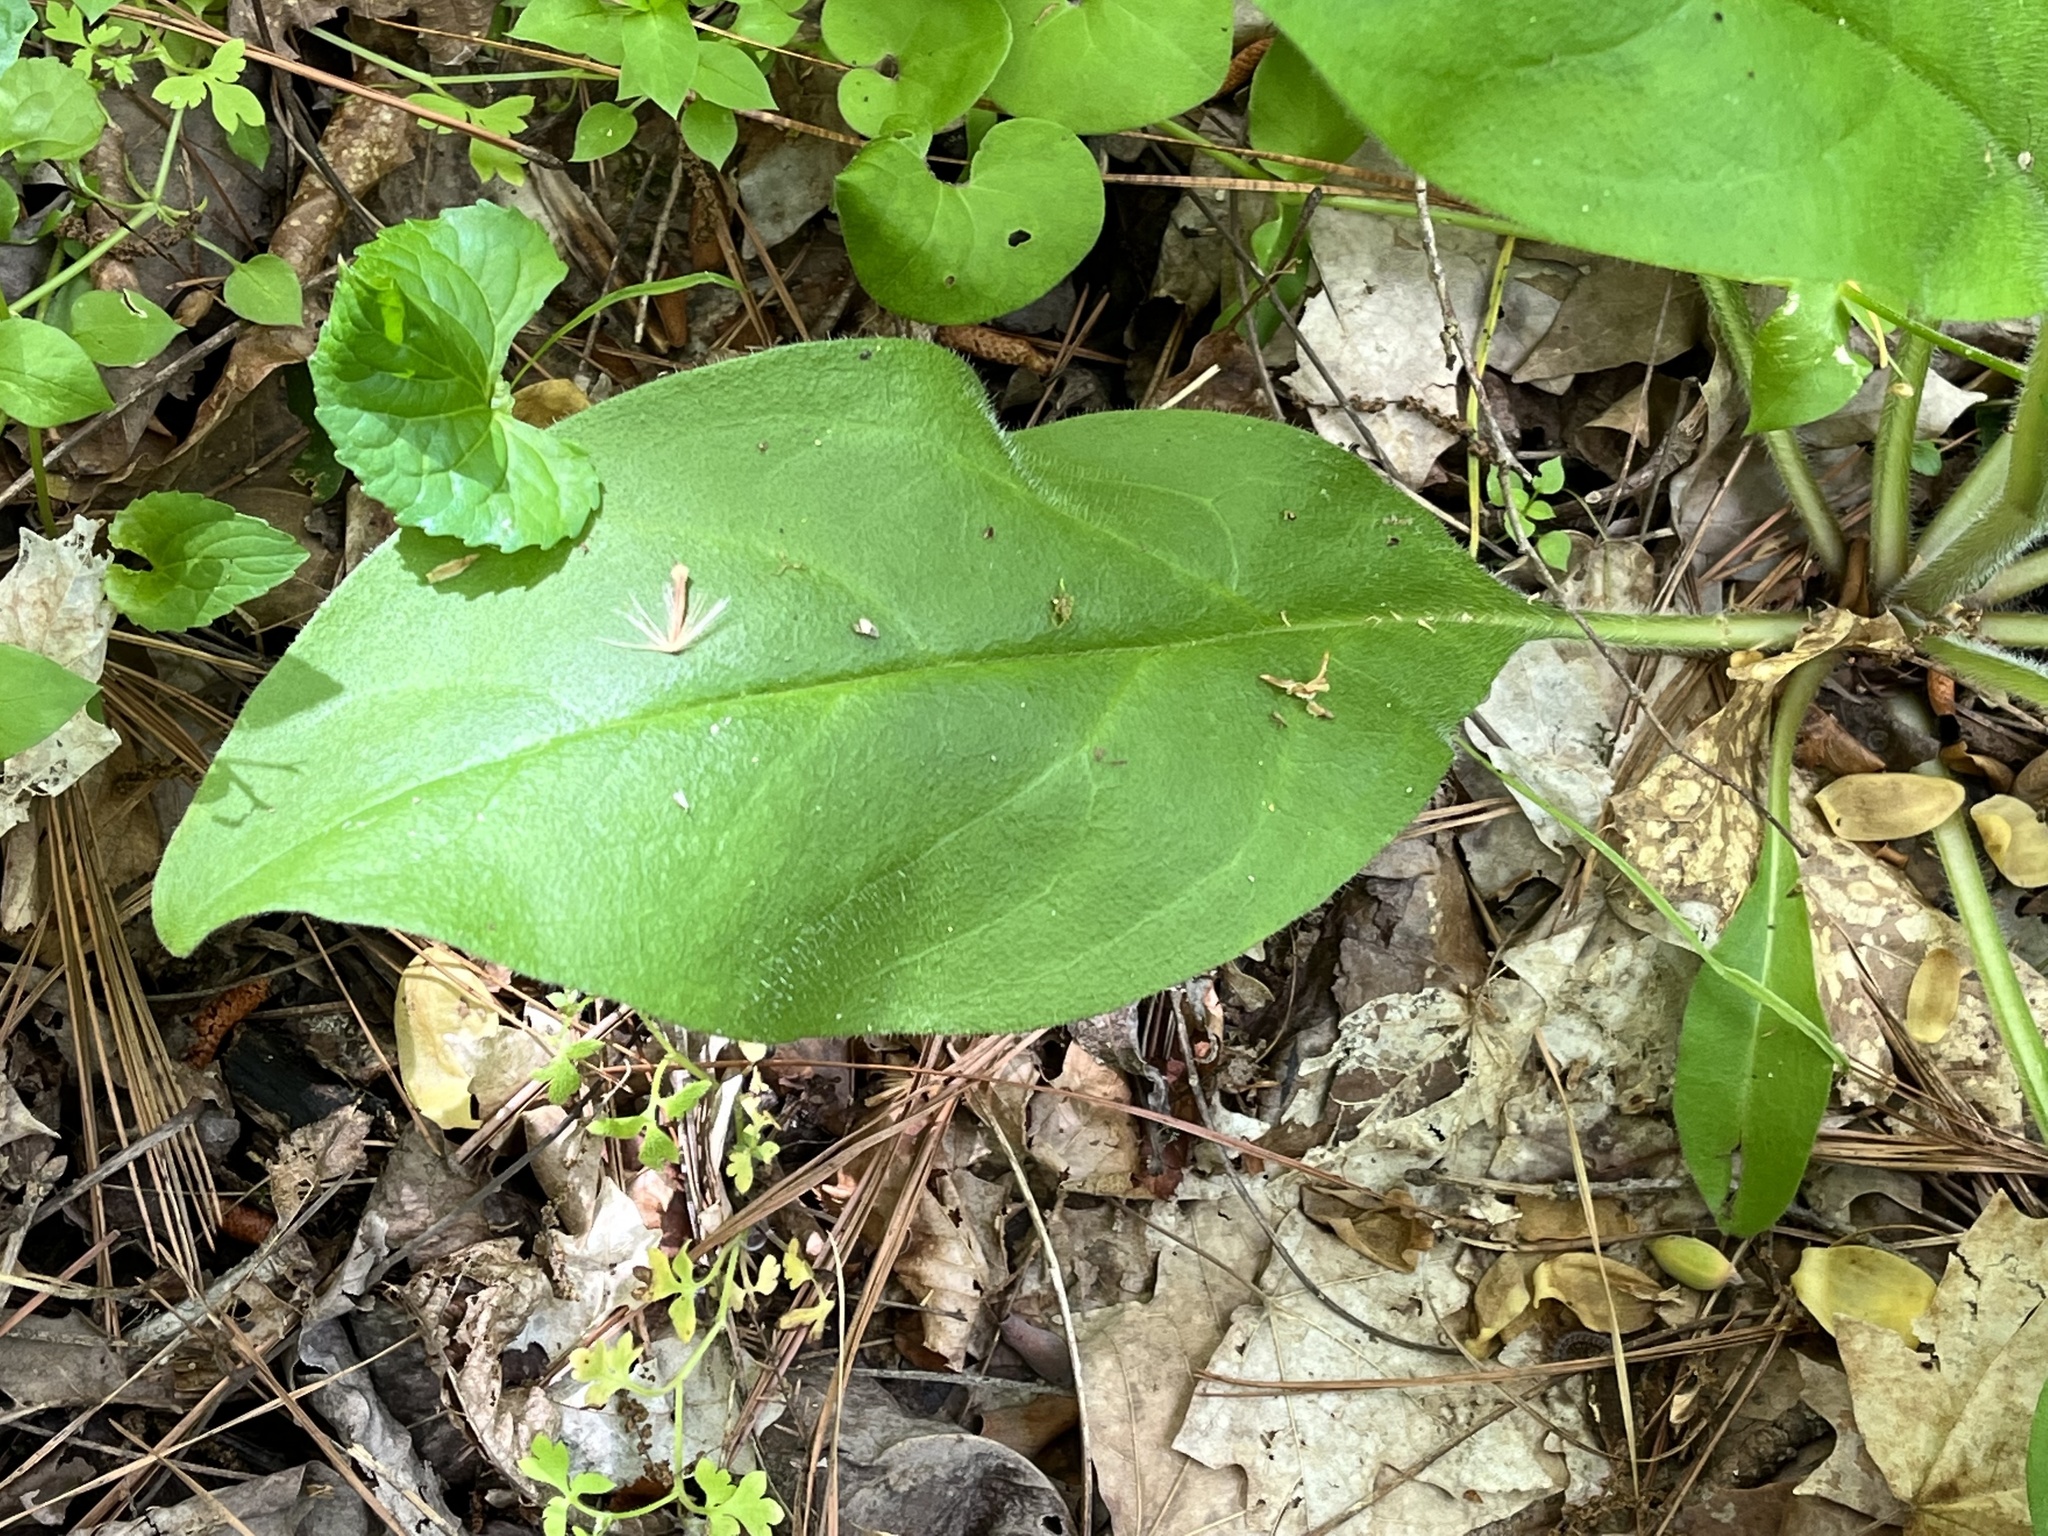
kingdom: Plantae
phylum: Tracheophyta
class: Magnoliopsida
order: Boraginales
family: Boraginaceae
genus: Andersonglossum
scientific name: Andersonglossum virginianum
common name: Wild comfrey
